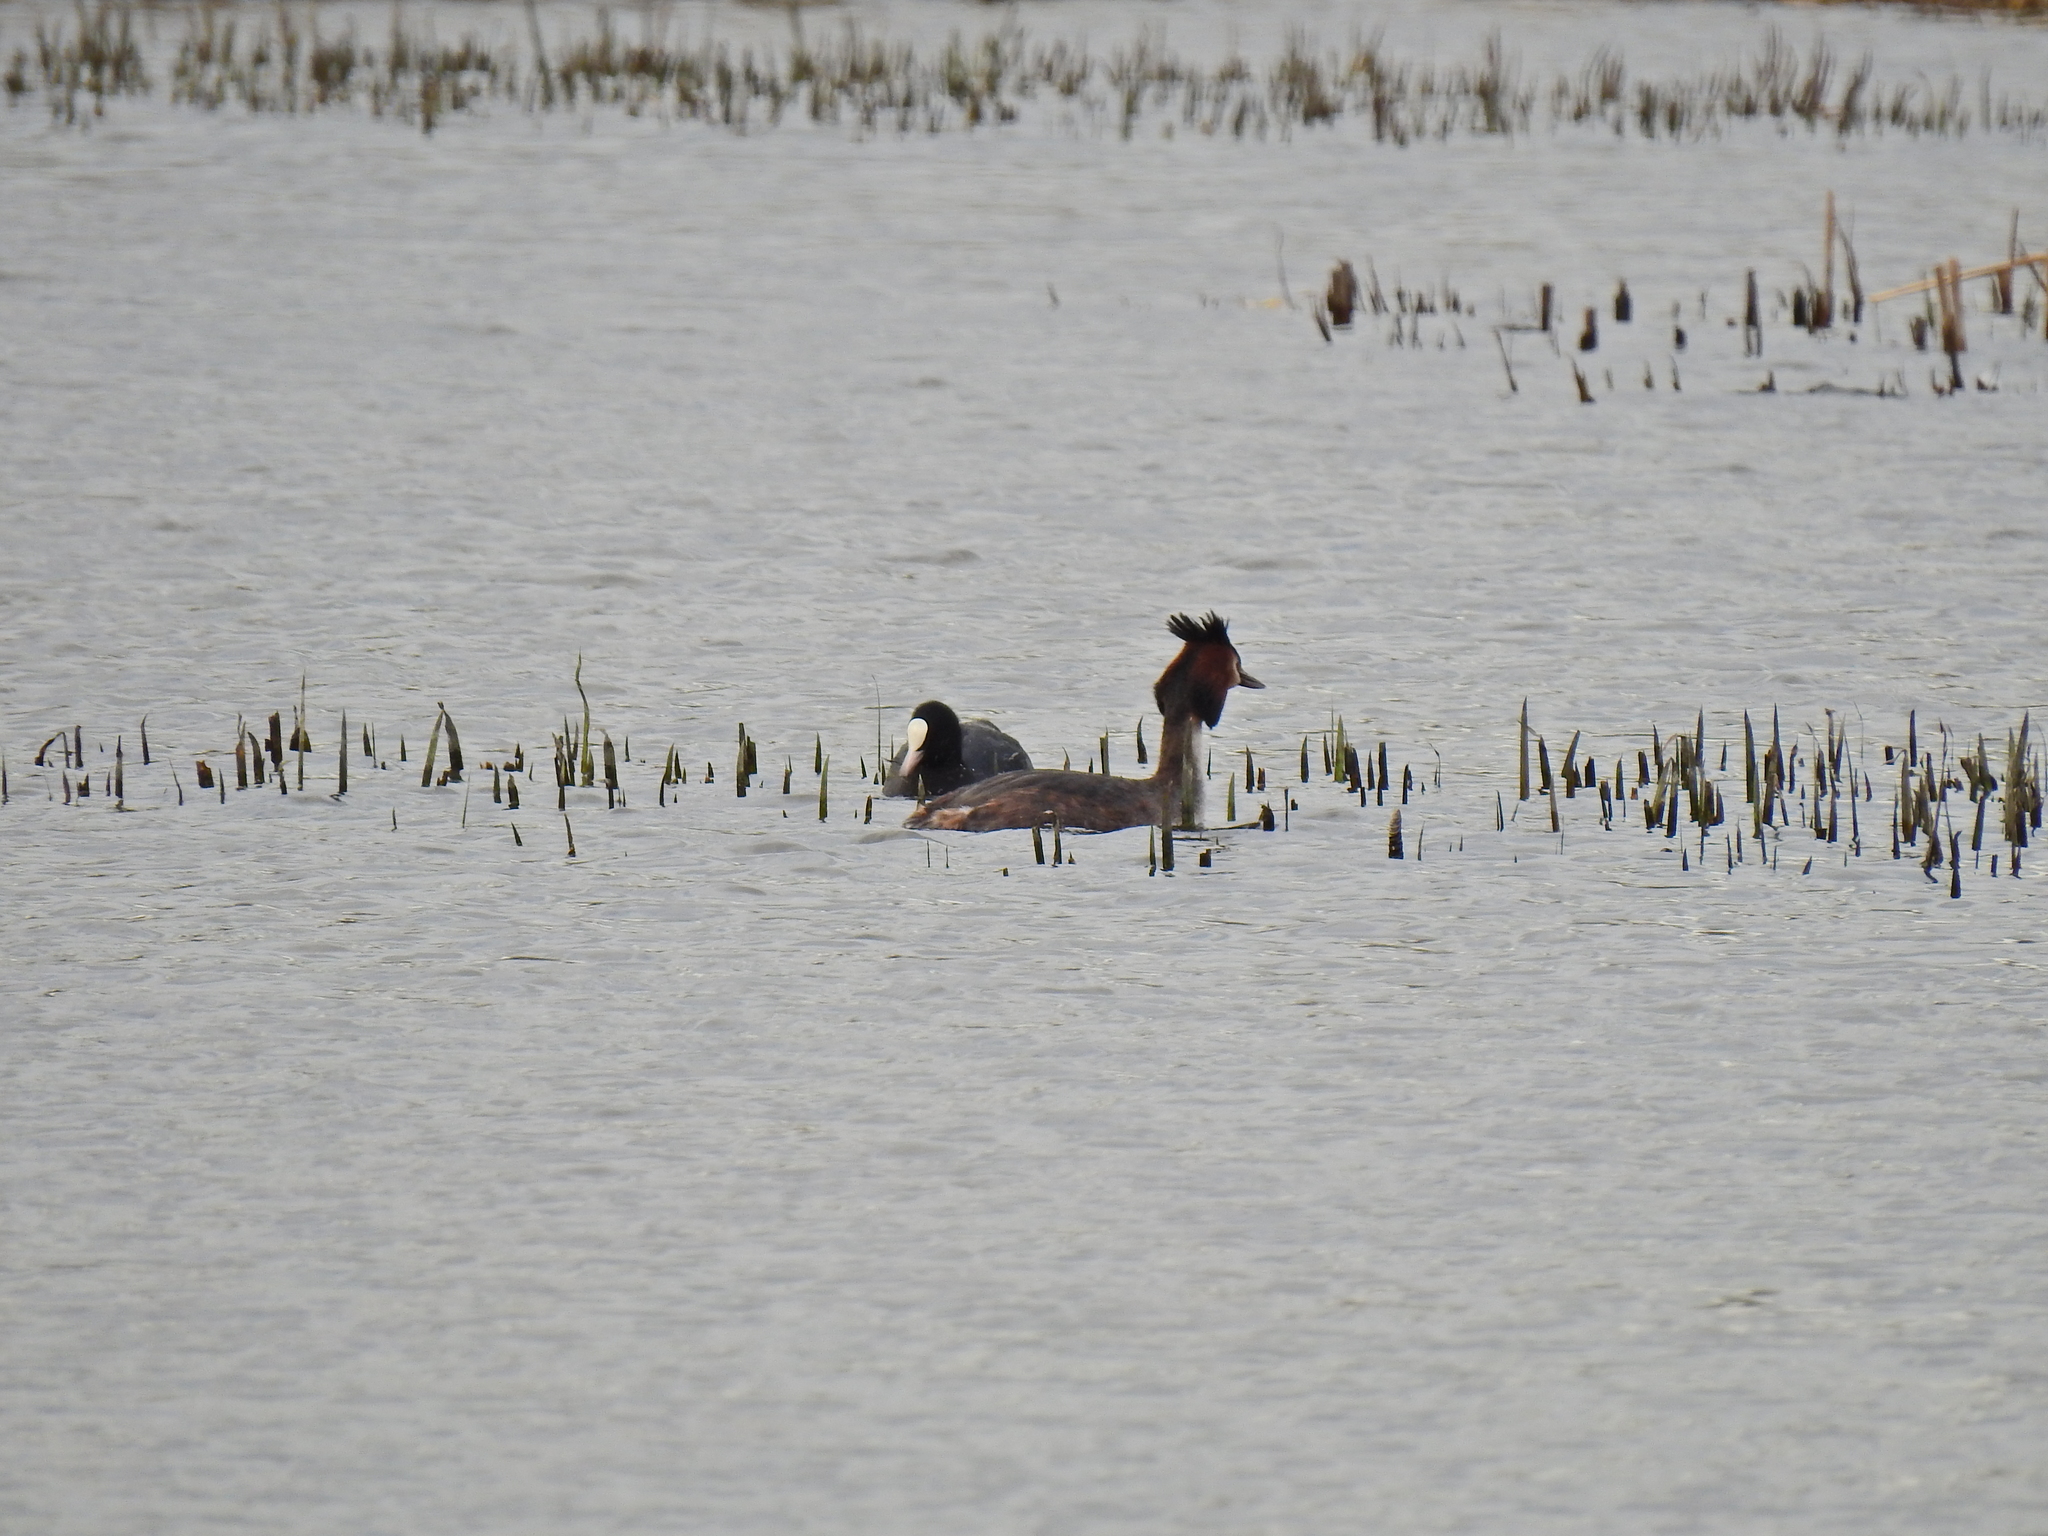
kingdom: Animalia
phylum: Chordata
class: Aves
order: Podicipediformes
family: Podicipedidae
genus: Podiceps
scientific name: Podiceps cristatus
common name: Great crested grebe
